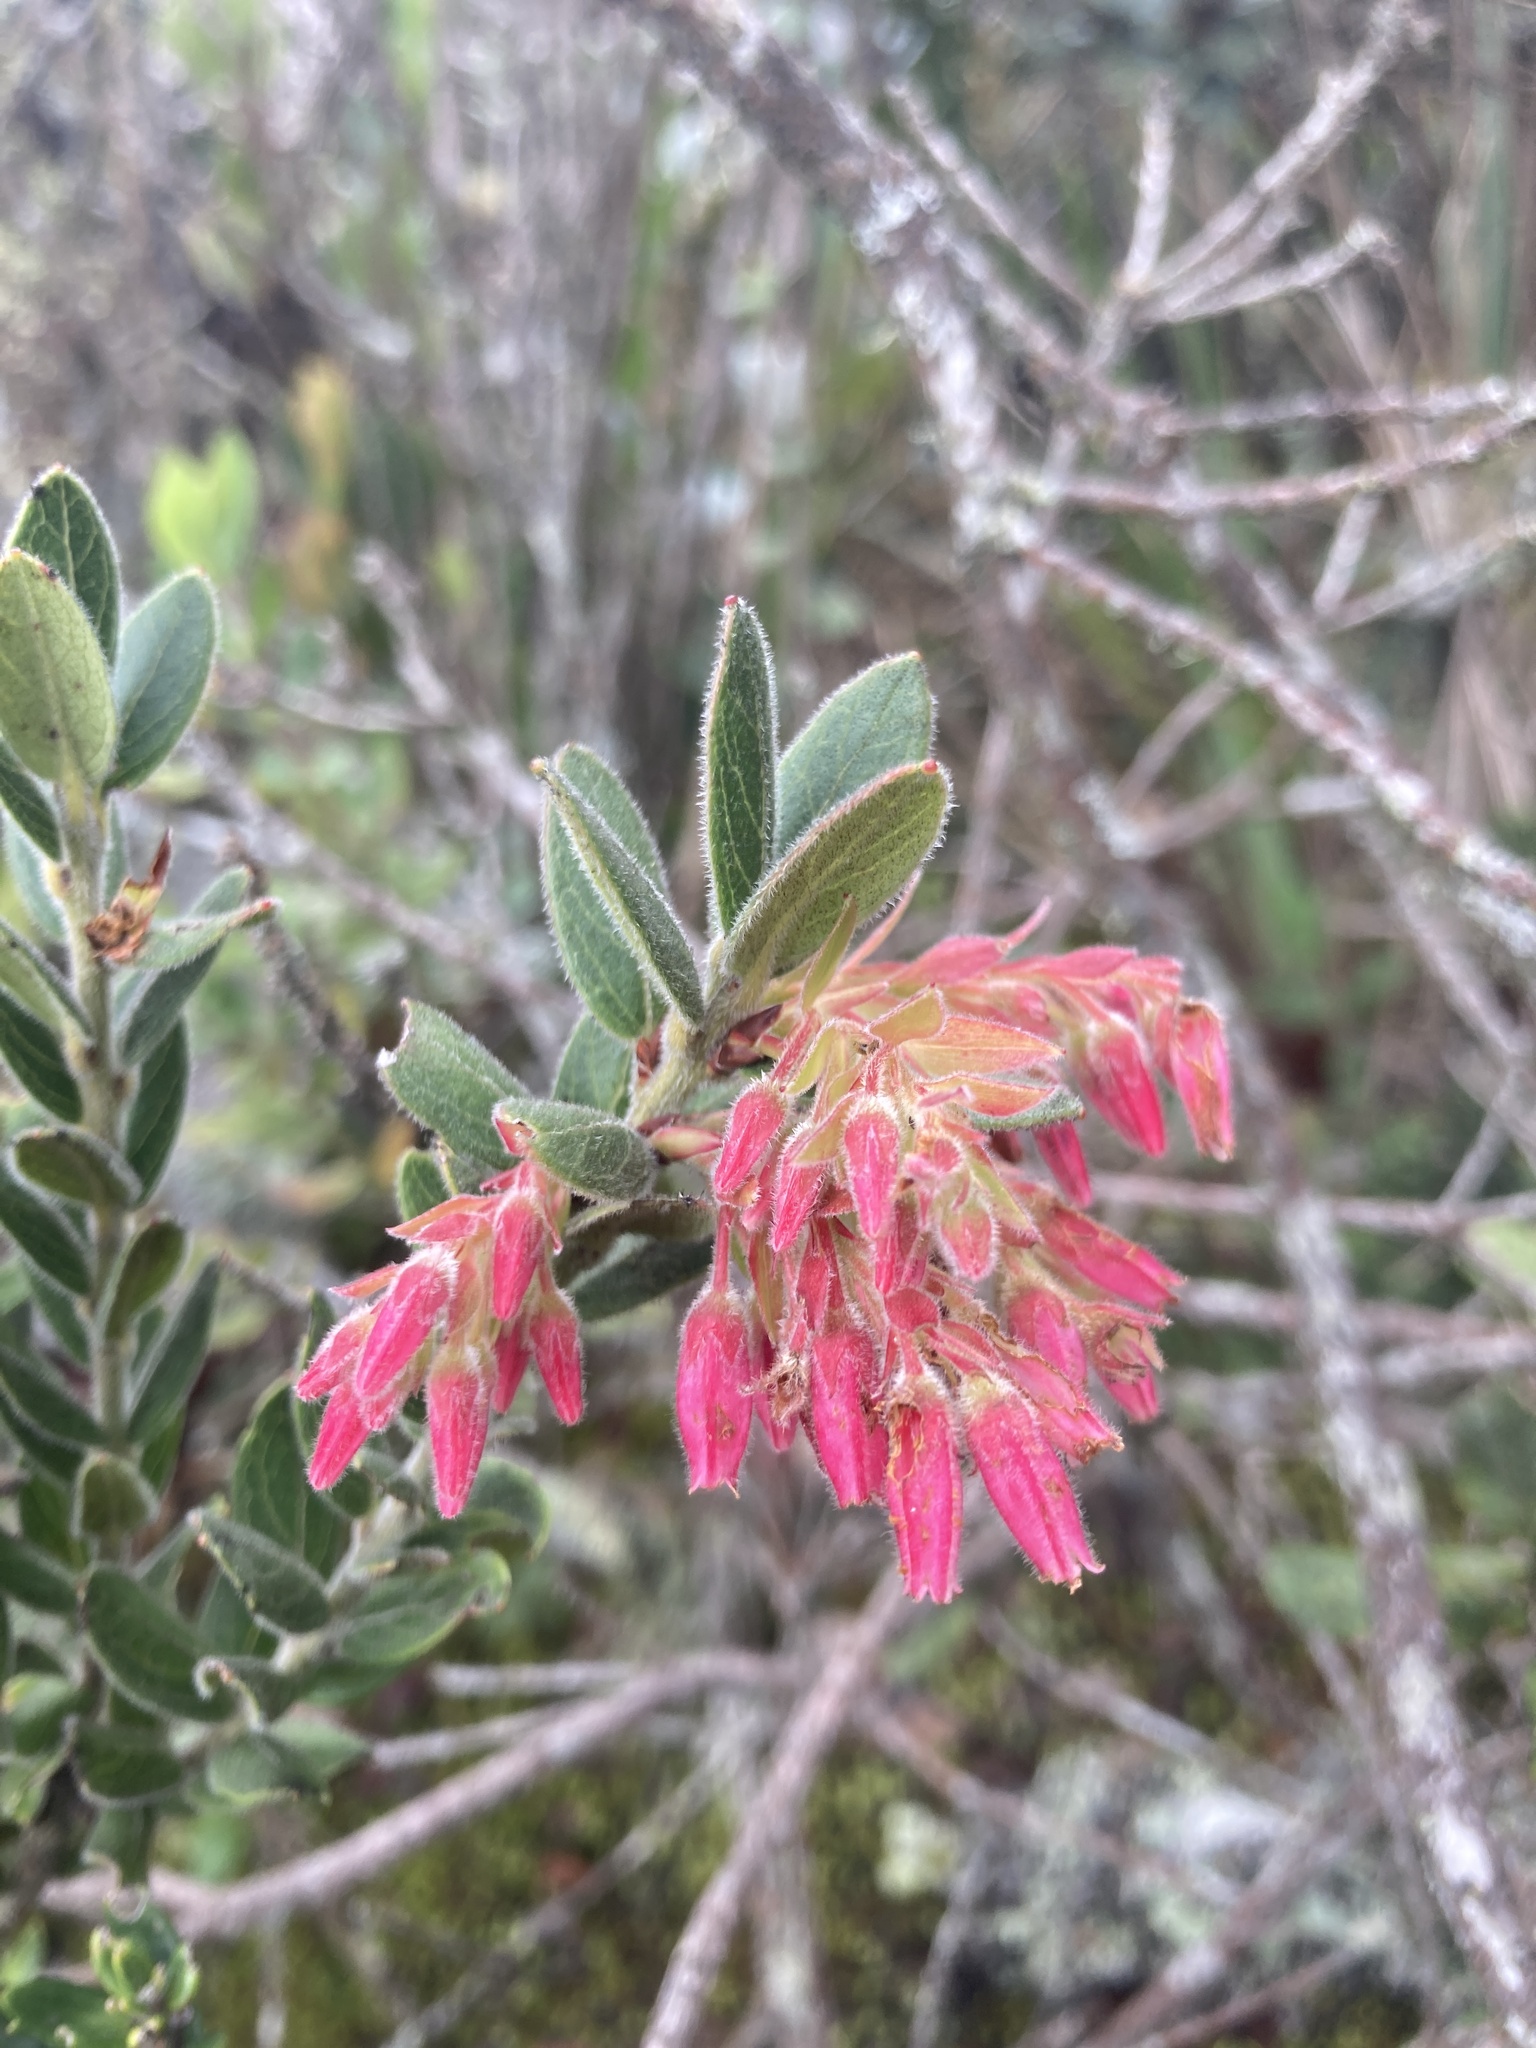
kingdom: Plantae
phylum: Tracheophyta
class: Magnoliopsida
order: Ericales
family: Ericaceae
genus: Gaylussacia
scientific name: Gaylussacia buxifolia
